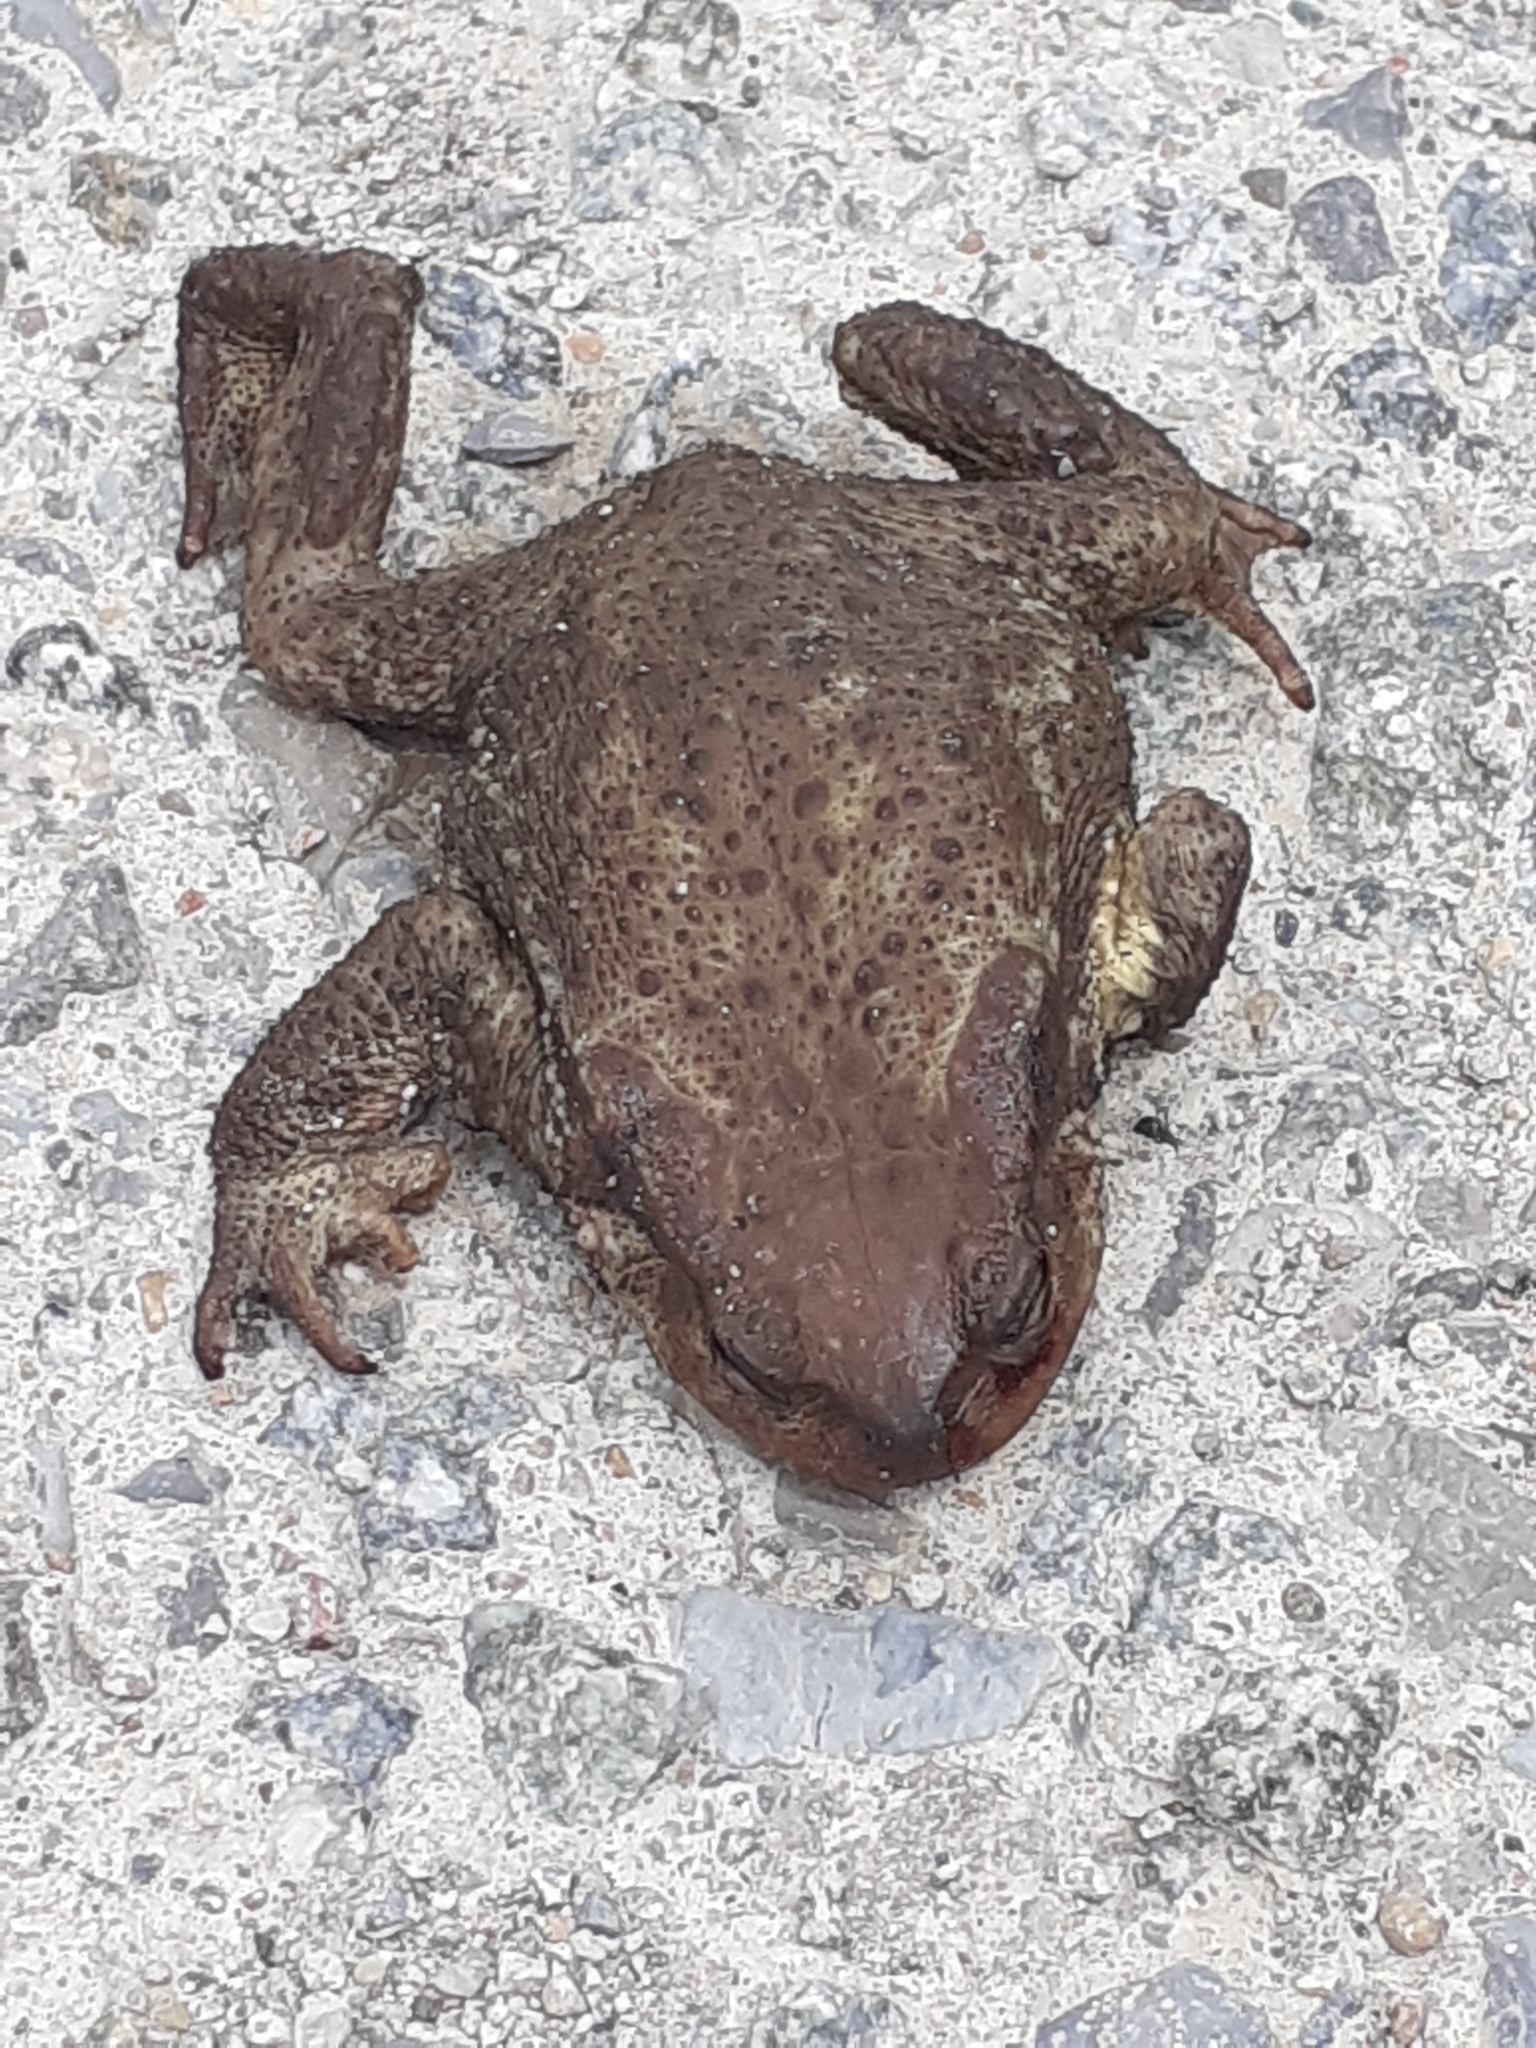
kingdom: Animalia
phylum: Chordata
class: Amphibia
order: Anura
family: Bufonidae
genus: Bufo
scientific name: Bufo spinosus
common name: Western common toad
